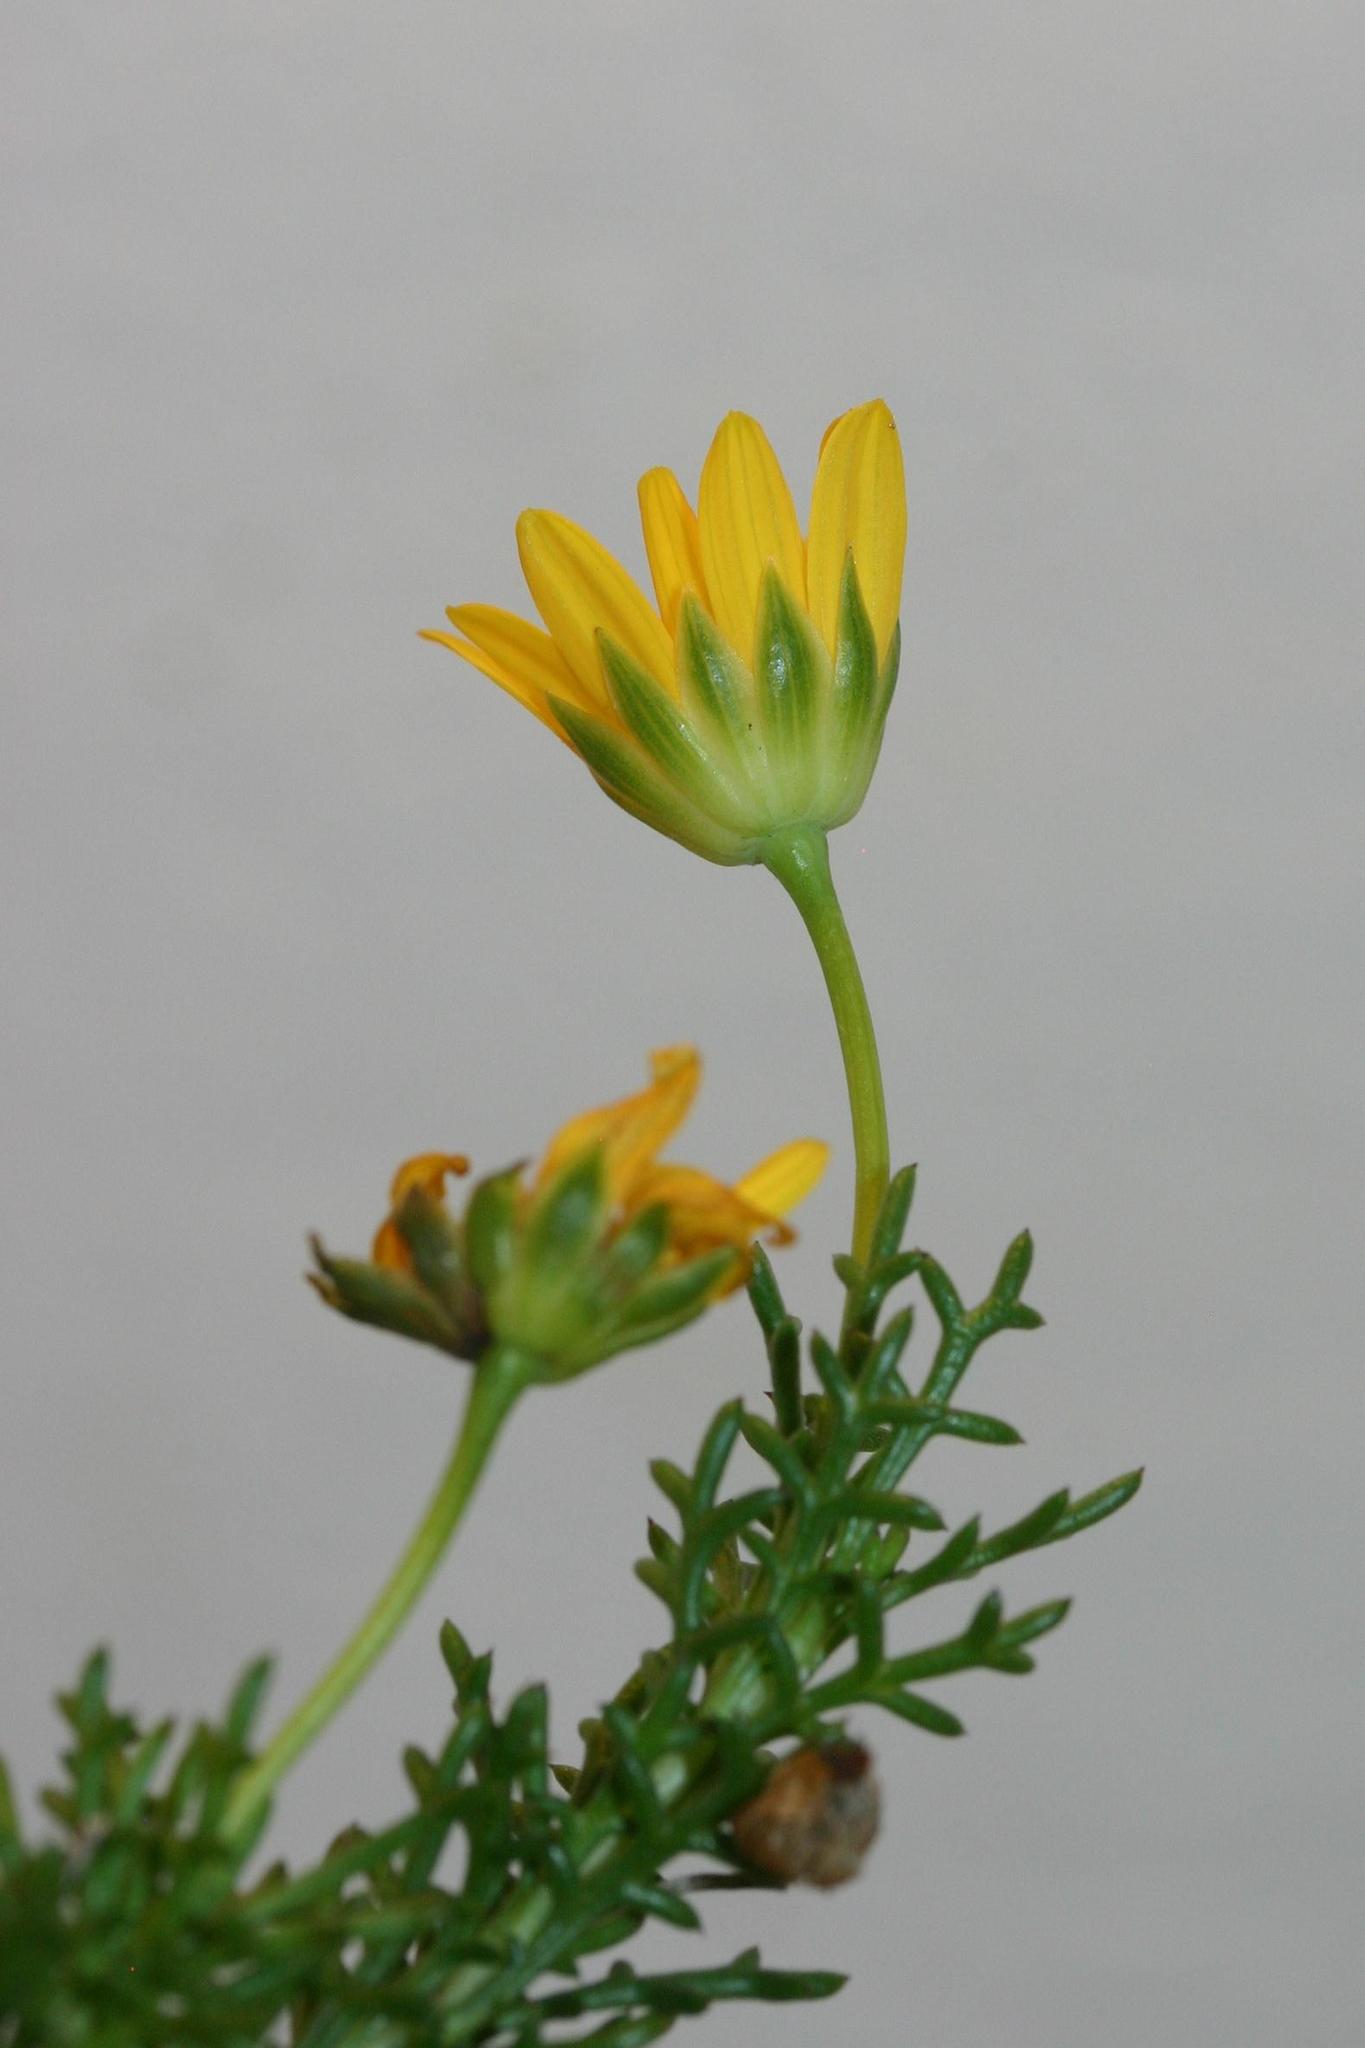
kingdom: Plantae
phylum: Tracheophyta
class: Magnoliopsida
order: Asterales
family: Asteraceae
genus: Euryops
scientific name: Euryops pinnatipartitus
